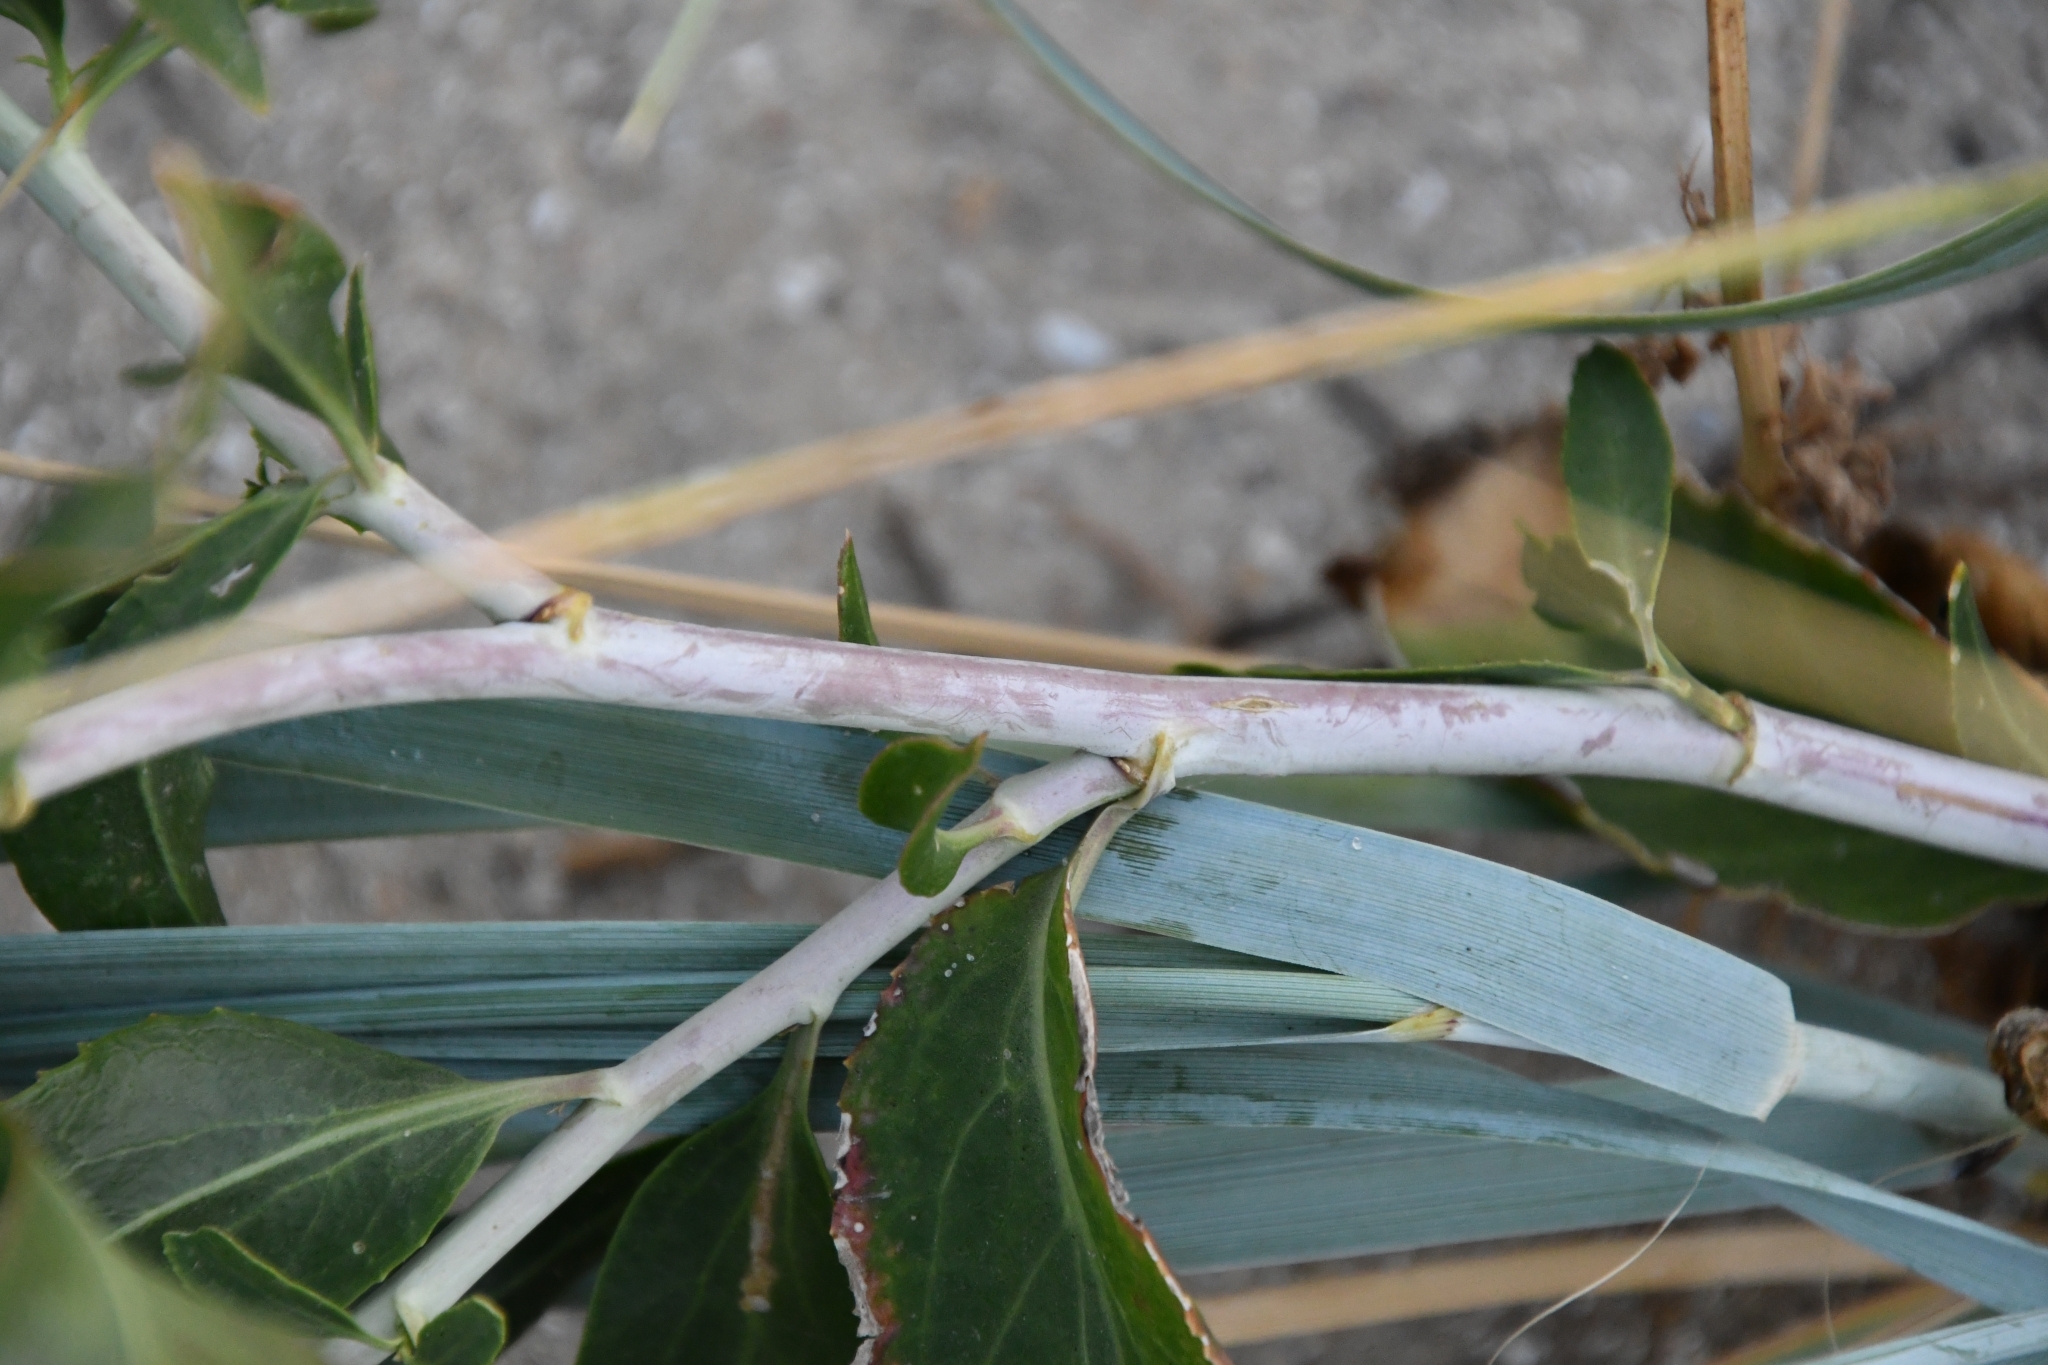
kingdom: Plantae
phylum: Tracheophyta
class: Magnoliopsida
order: Brassicales
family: Brassicaceae
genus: Lepidium
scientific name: Lepidium latifolium
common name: Dittander
